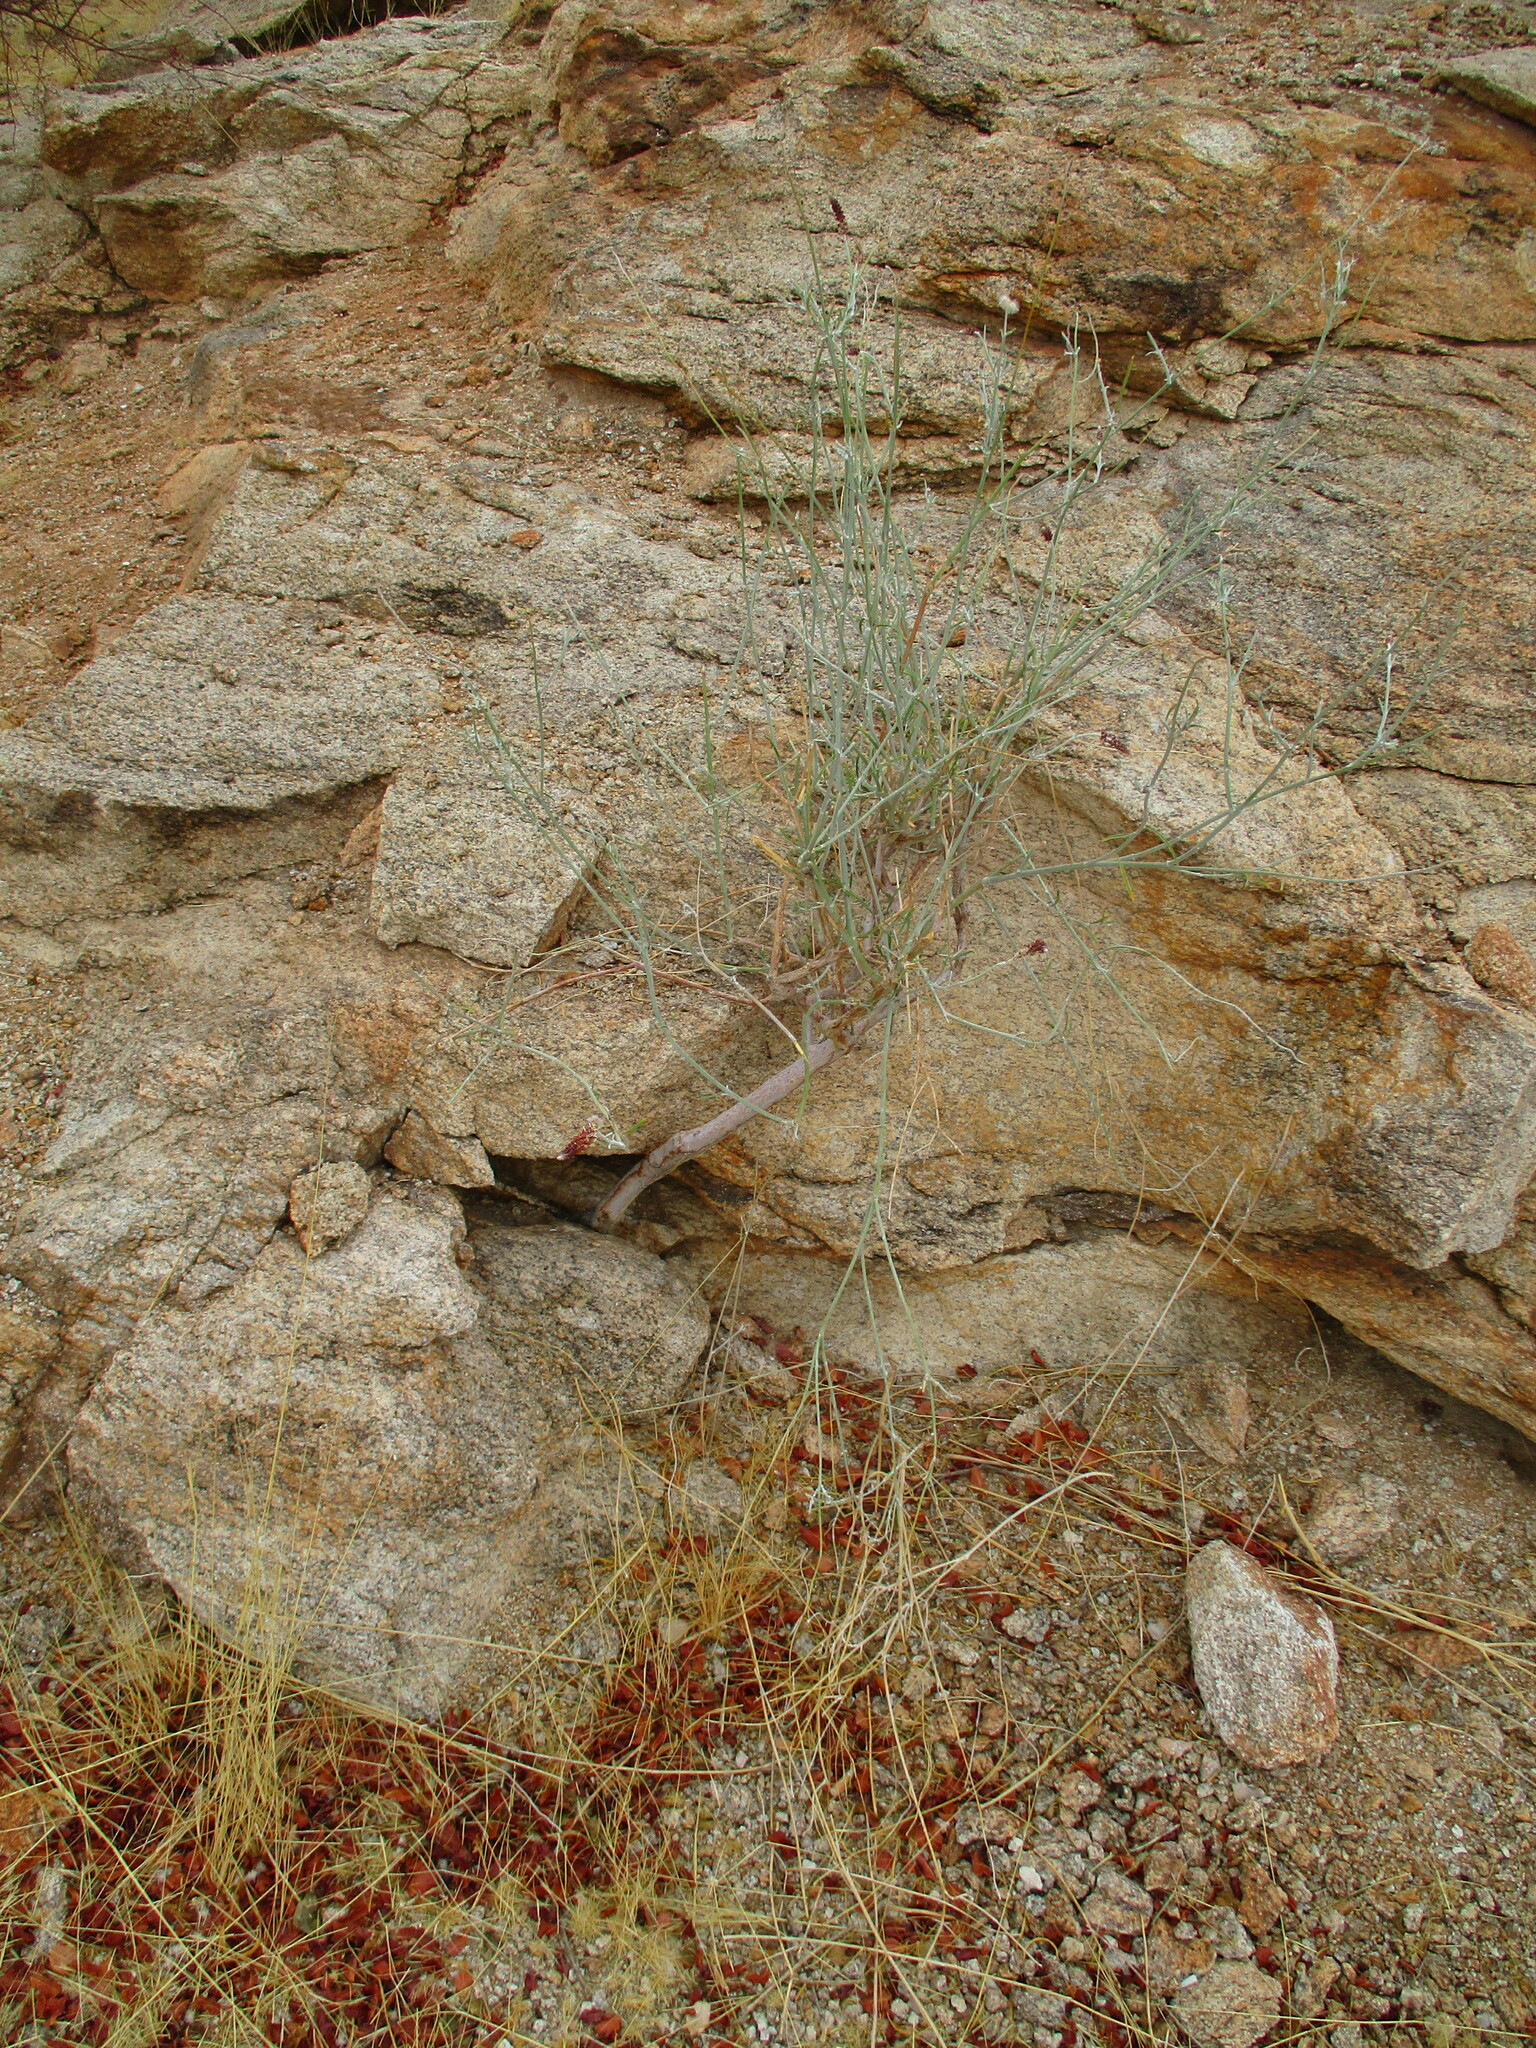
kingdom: Plantae
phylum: Tracheophyta
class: Magnoliopsida
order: Caryophyllales
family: Amaranthaceae
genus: Marcelliopsis
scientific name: Marcelliopsis splendens
